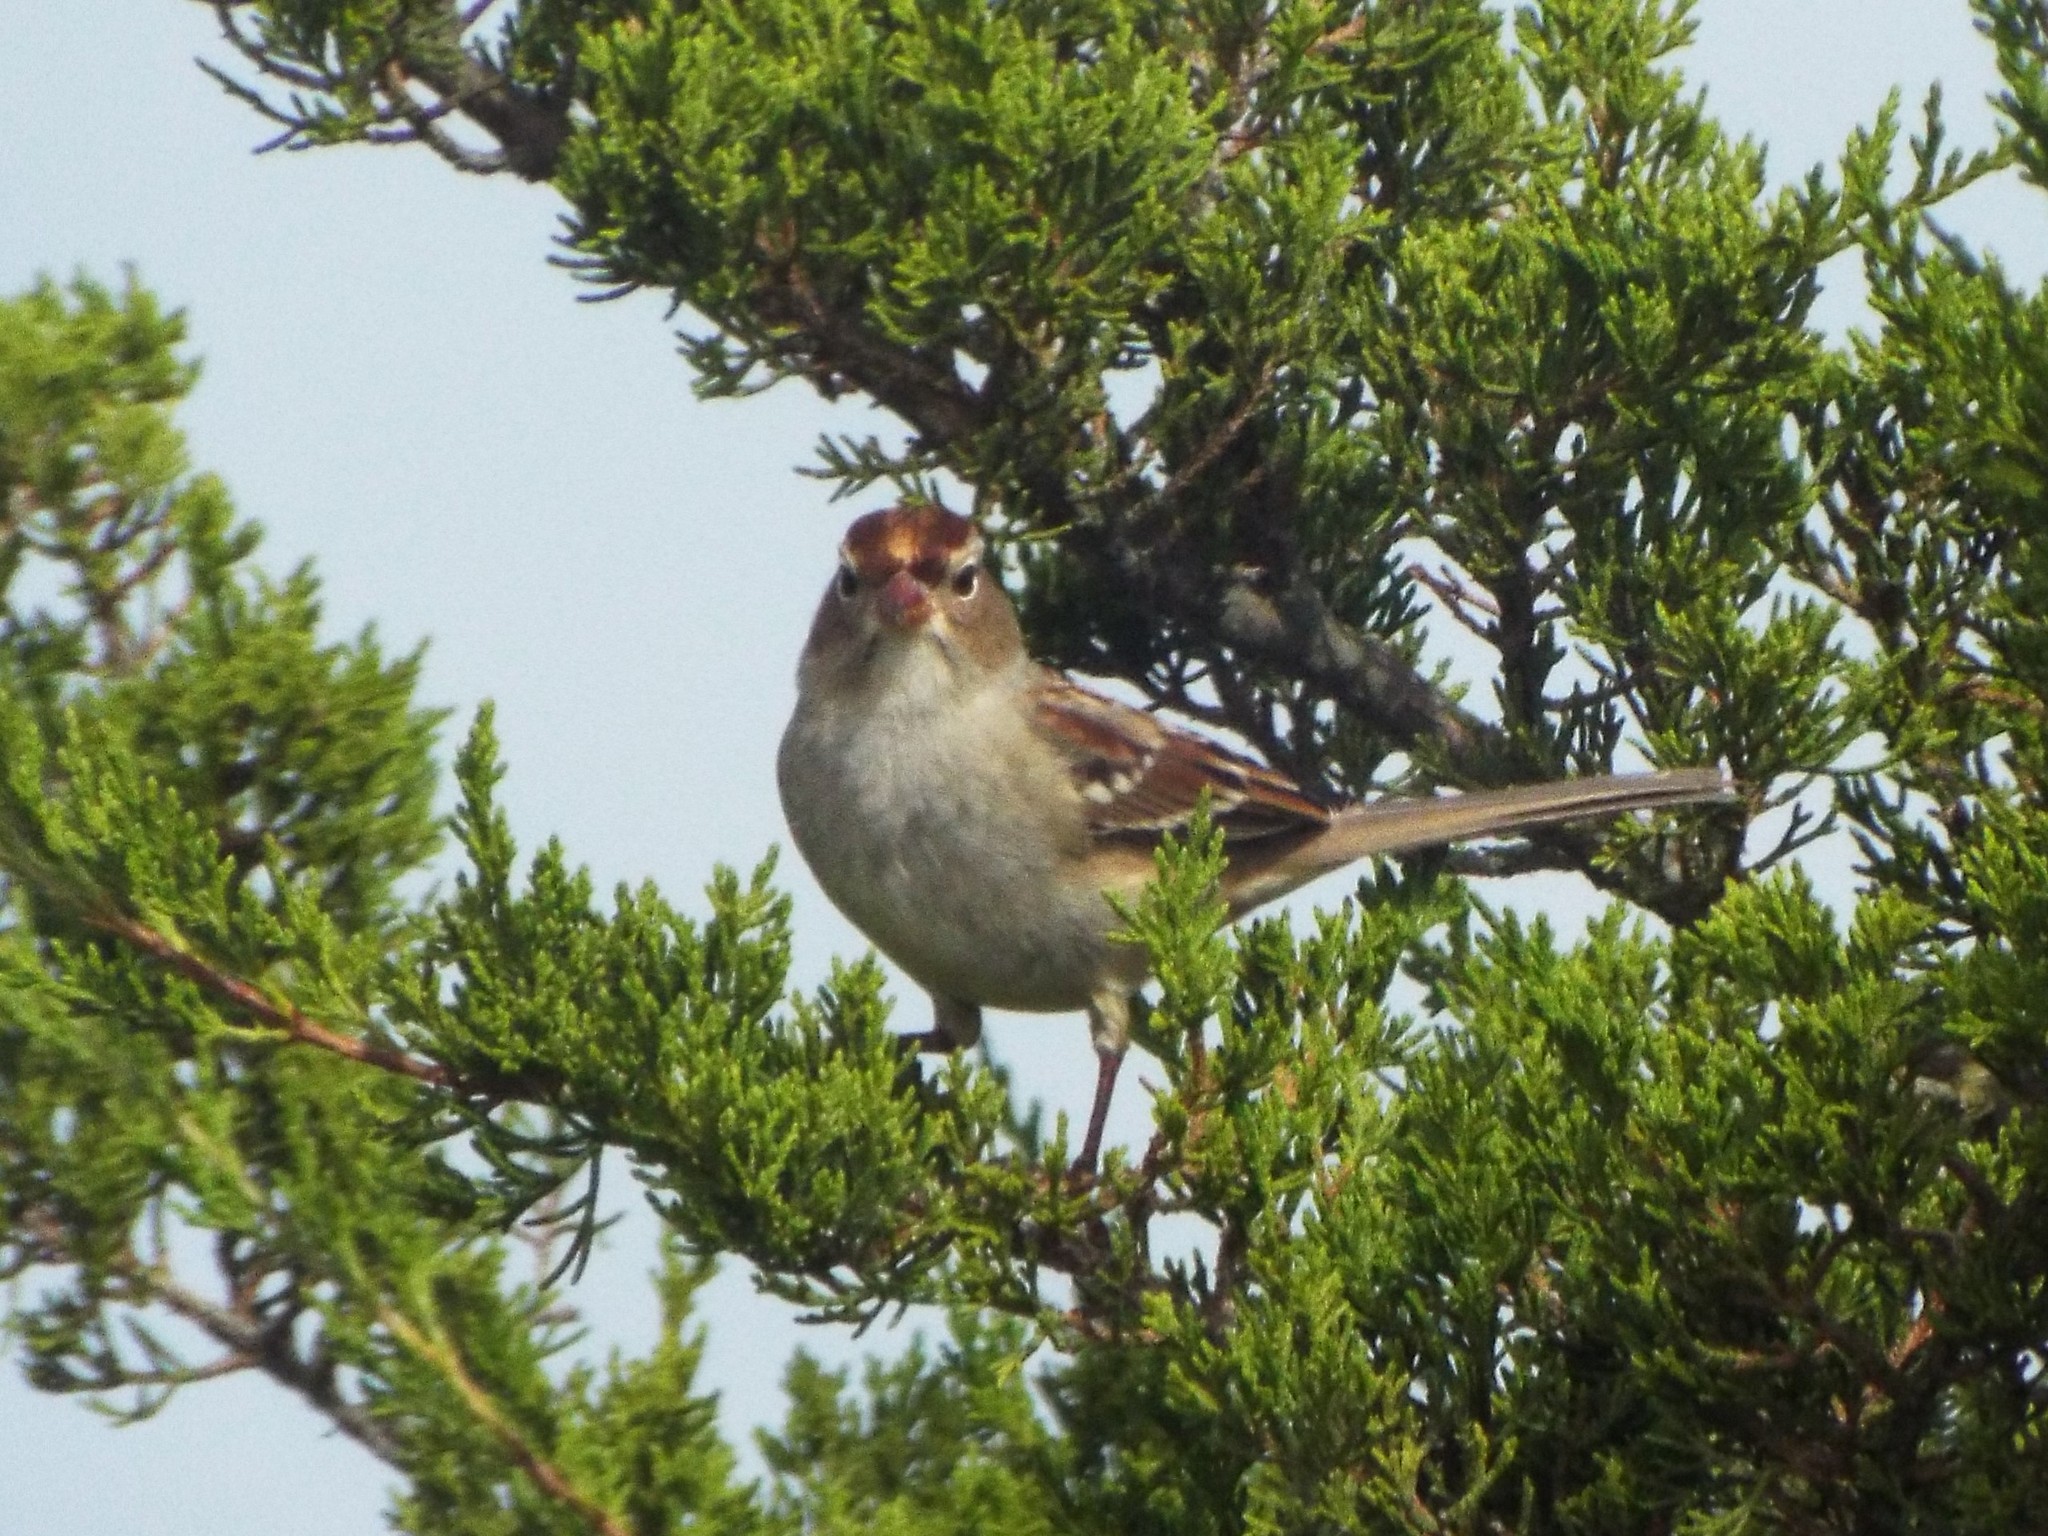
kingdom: Animalia
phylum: Chordata
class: Aves
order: Passeriformes
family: Passerellidae
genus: Zonotrichia
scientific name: Zonotrichia leucophrys
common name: White-crowned sparrow
